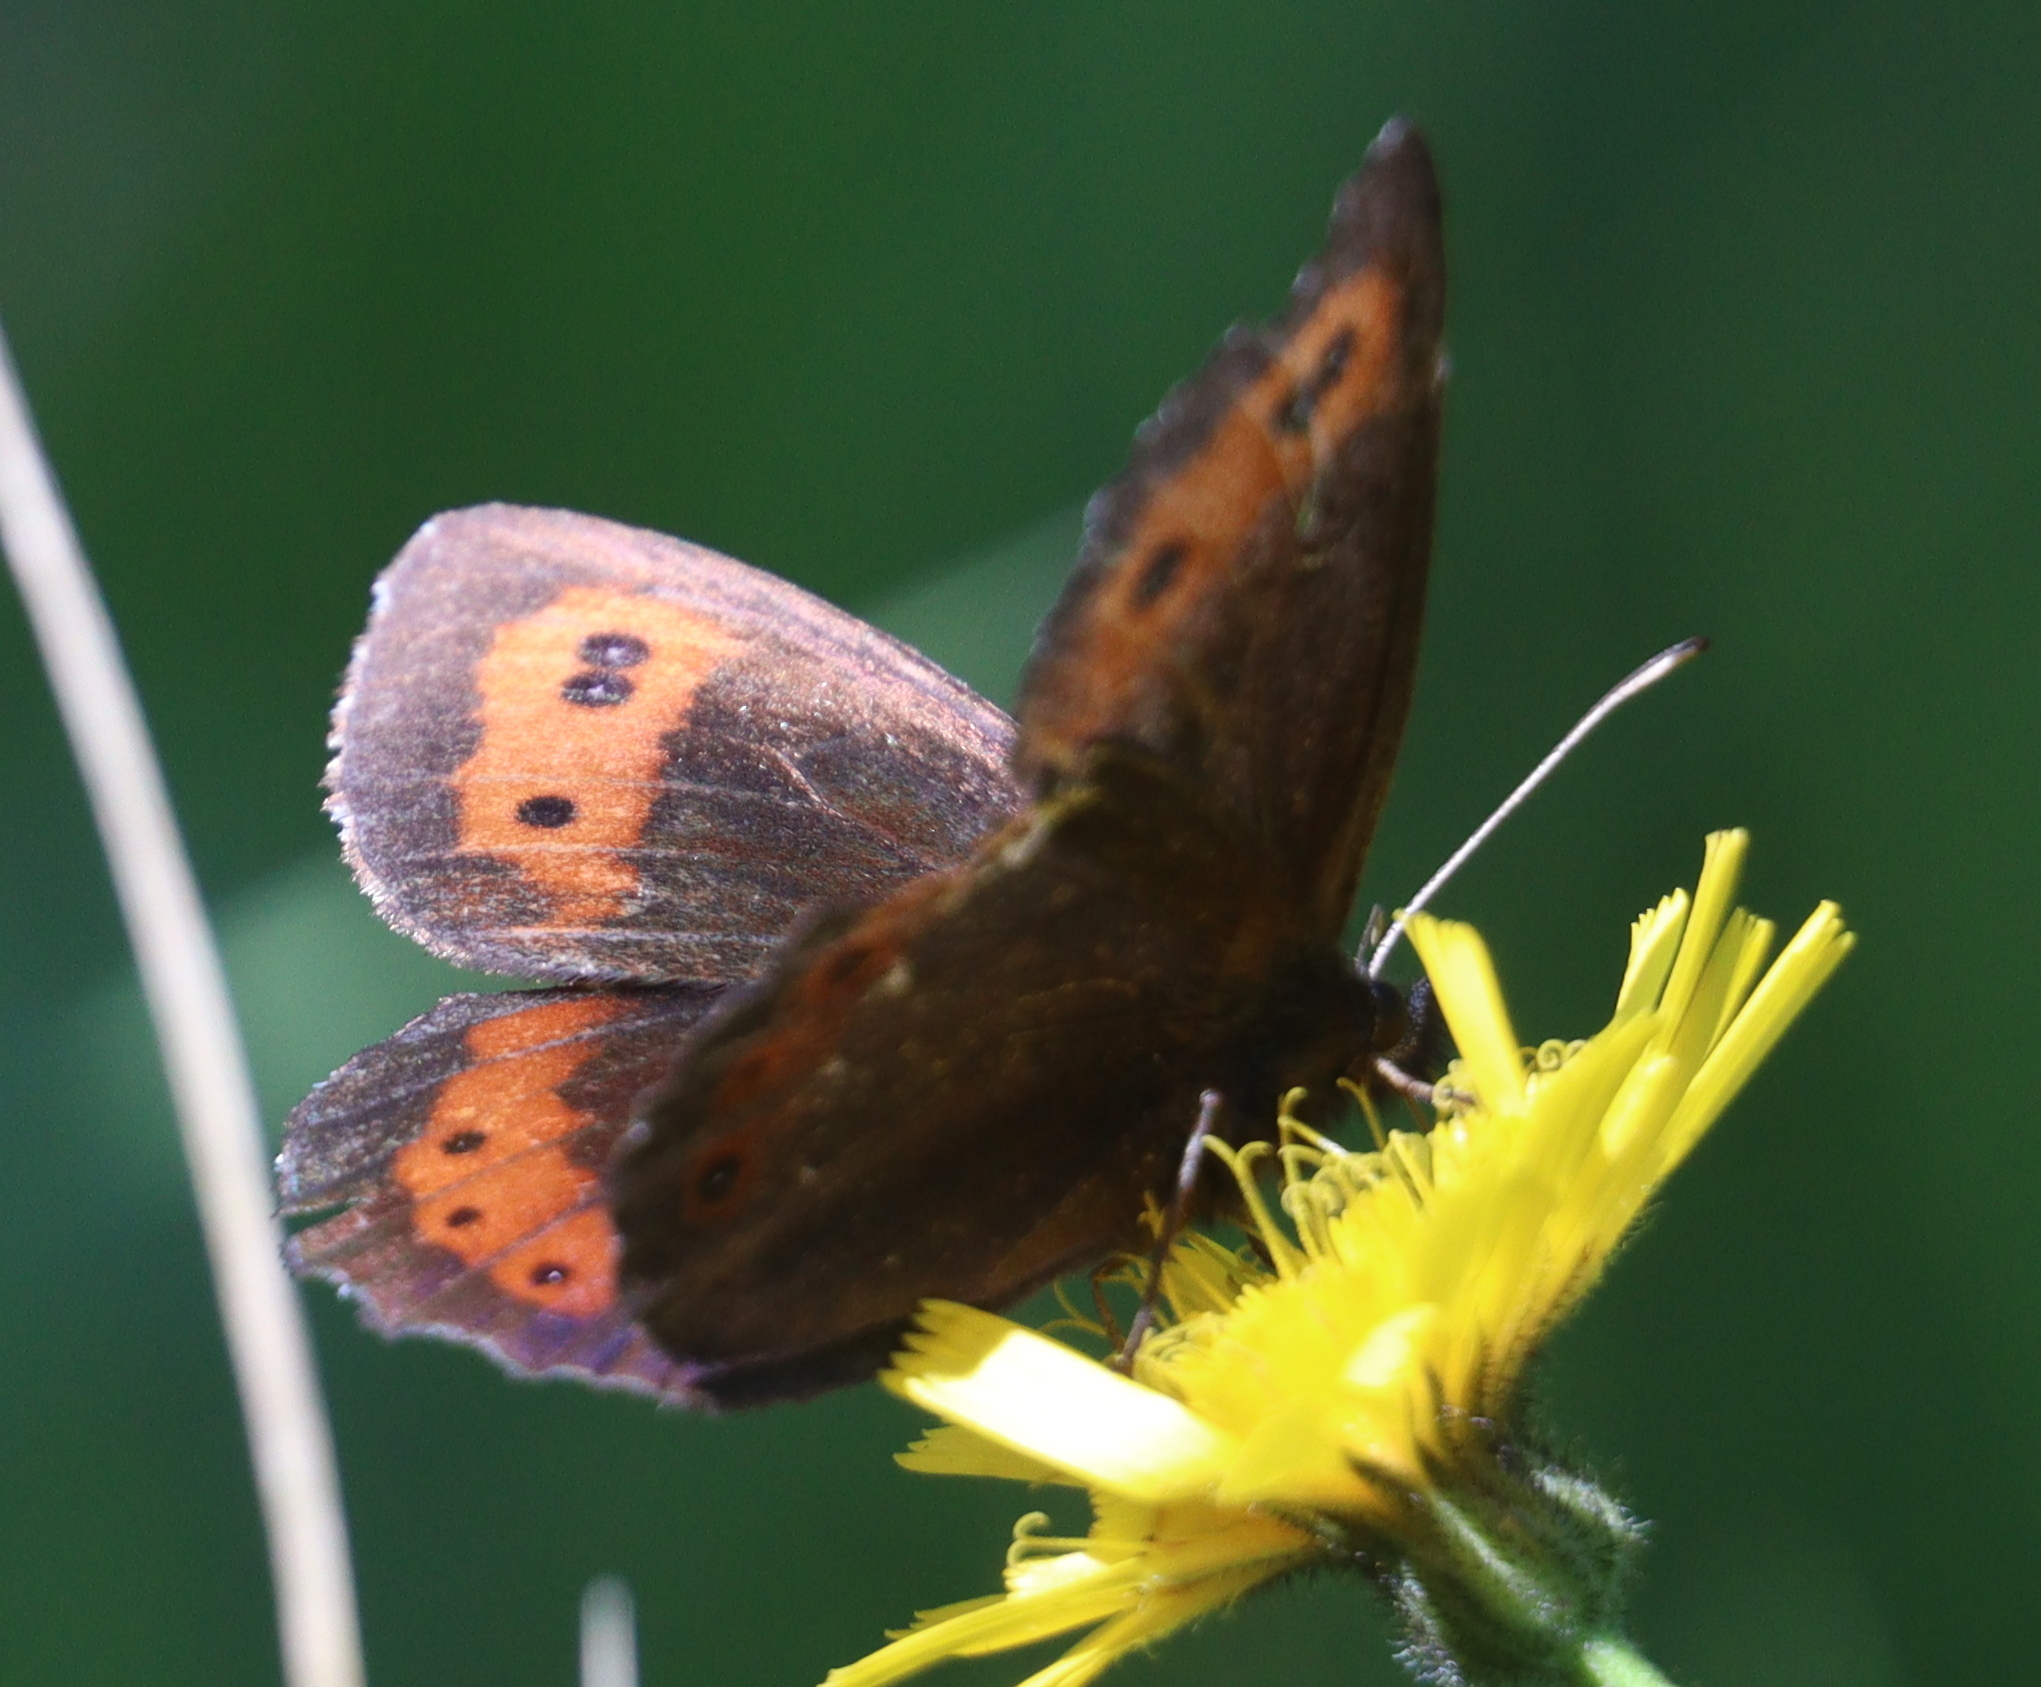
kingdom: Animalia
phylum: Arthropoda
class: Insecta
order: Lepidoptera
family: Nymphalidae
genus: Erebia
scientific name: Erebia ligea
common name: Arran brown
